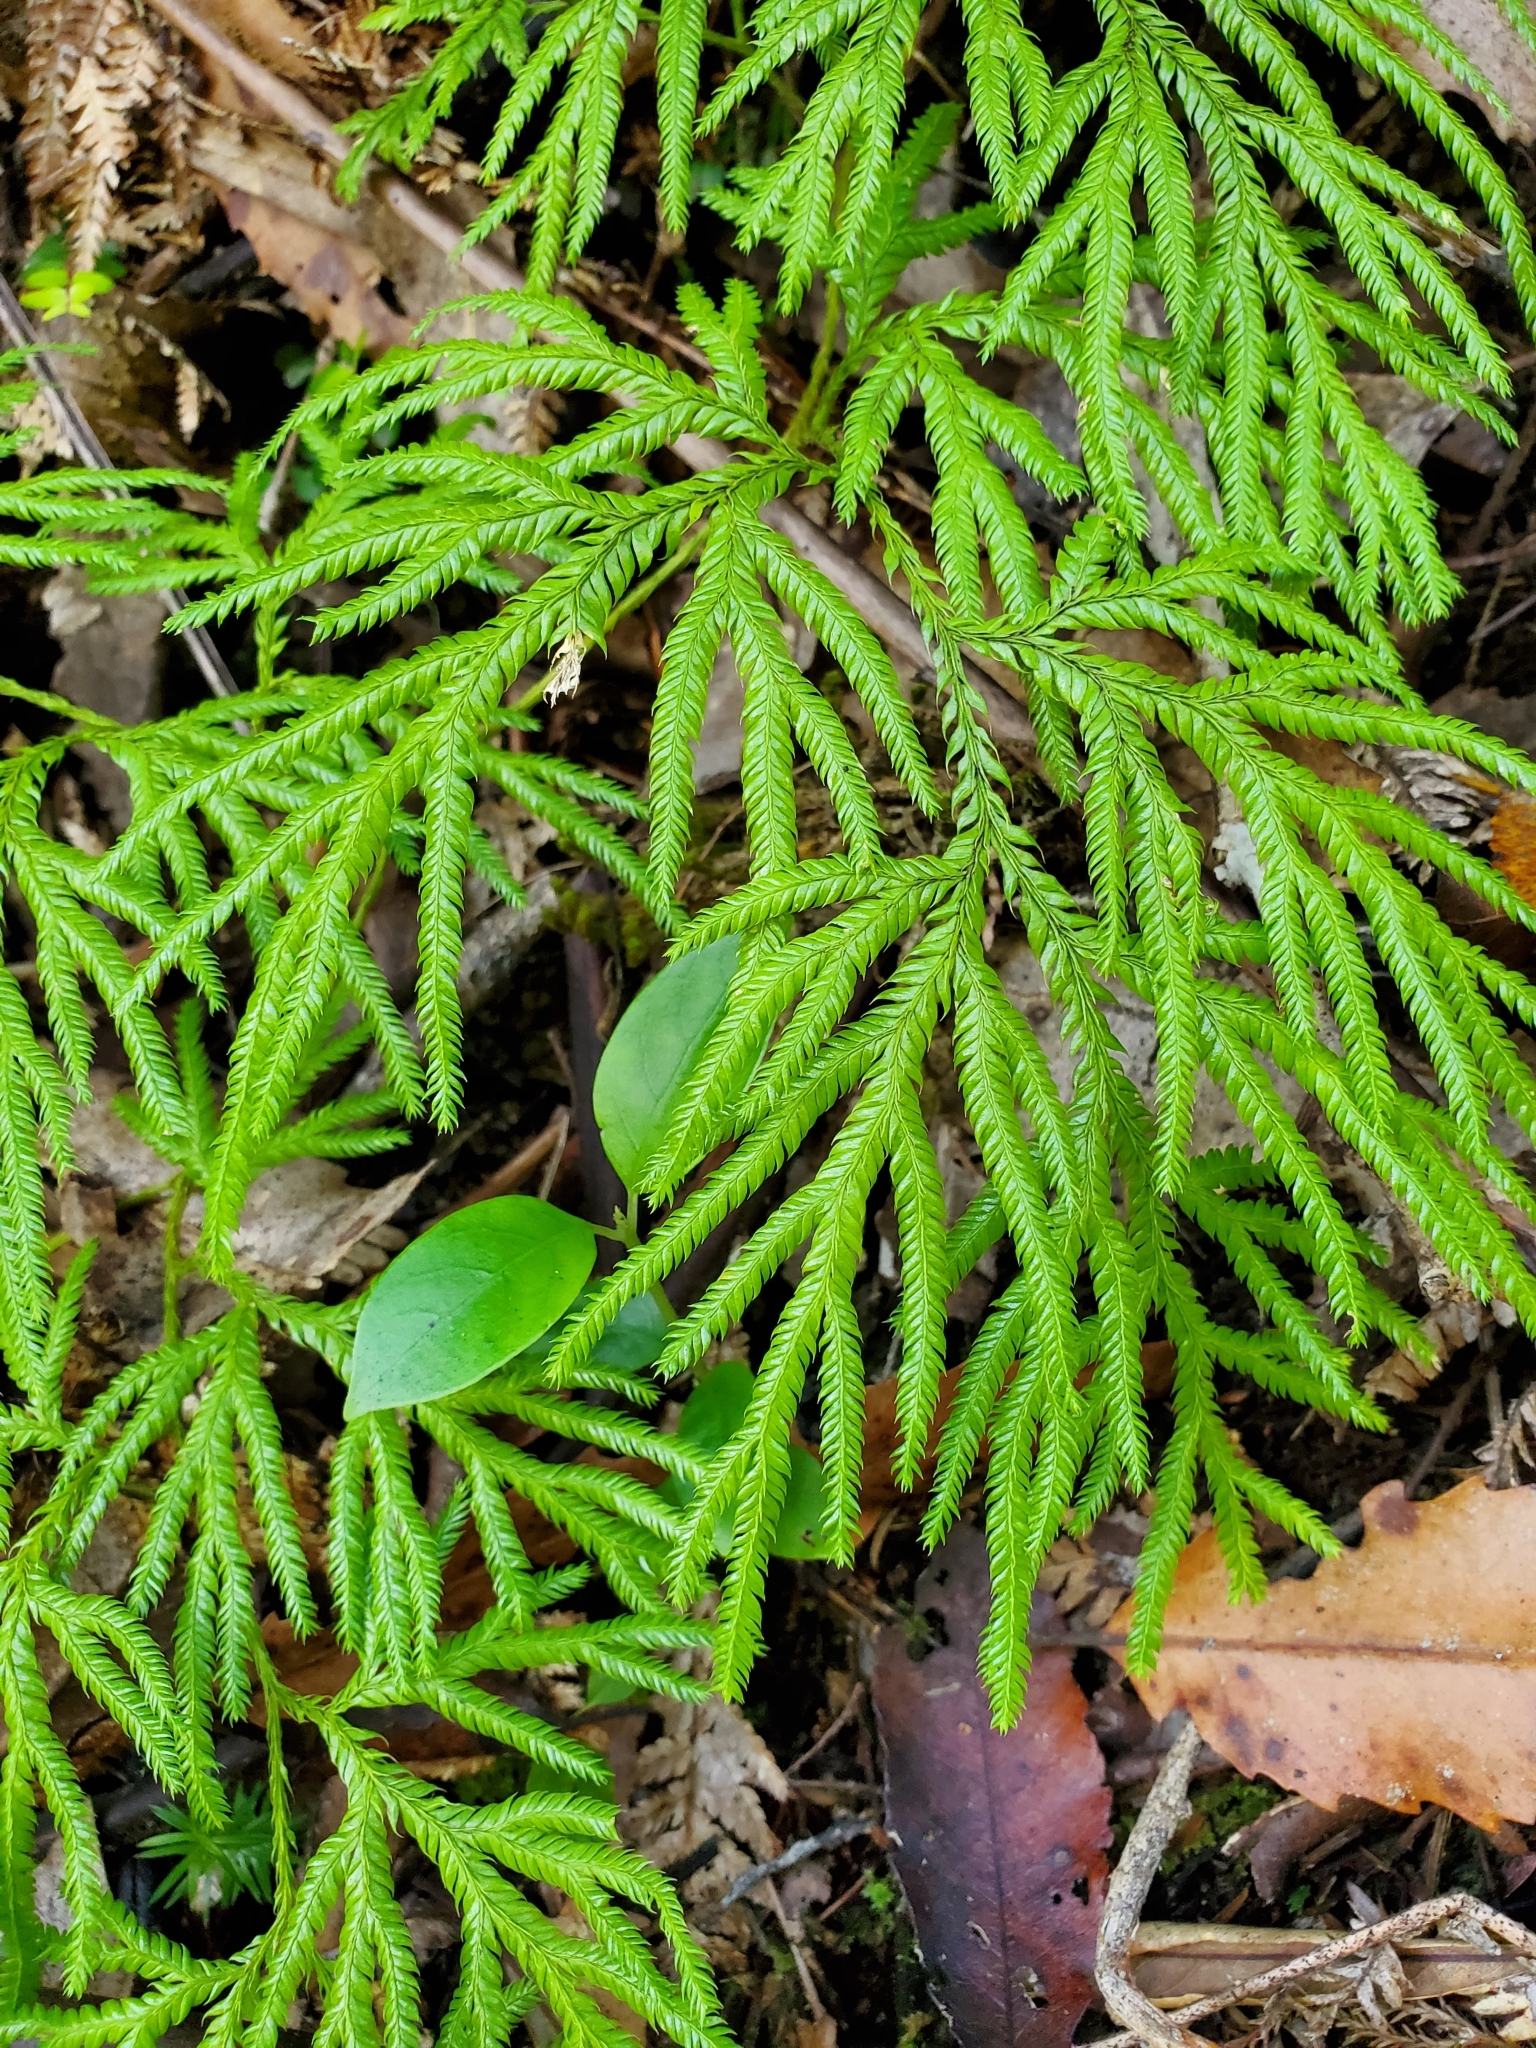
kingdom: Plantae
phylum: Tracheophyta
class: Lycopodiopsida
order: Lycopodiales
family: Lycopodiaceae
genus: Lycopodium
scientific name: Lycopodium volubile
